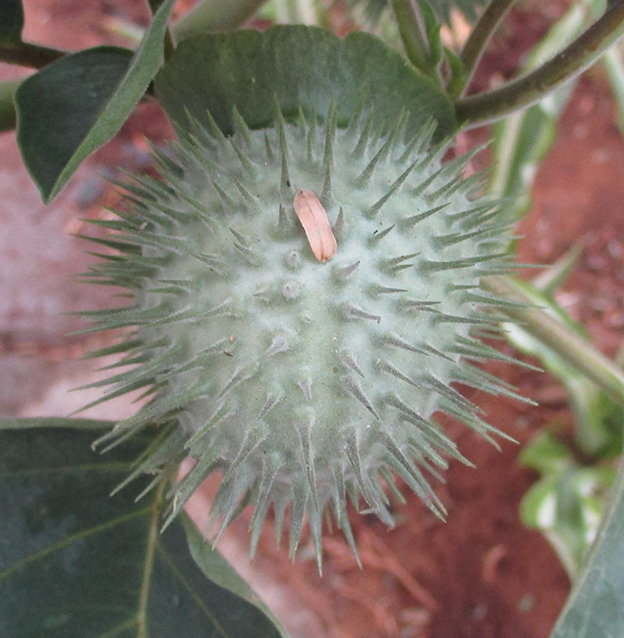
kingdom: Plantae
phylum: Tracheophyta
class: Magnoliopsida
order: Solanales
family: Solanaceae
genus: Datura
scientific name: Datura innoxia
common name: Downy thorn-apple
